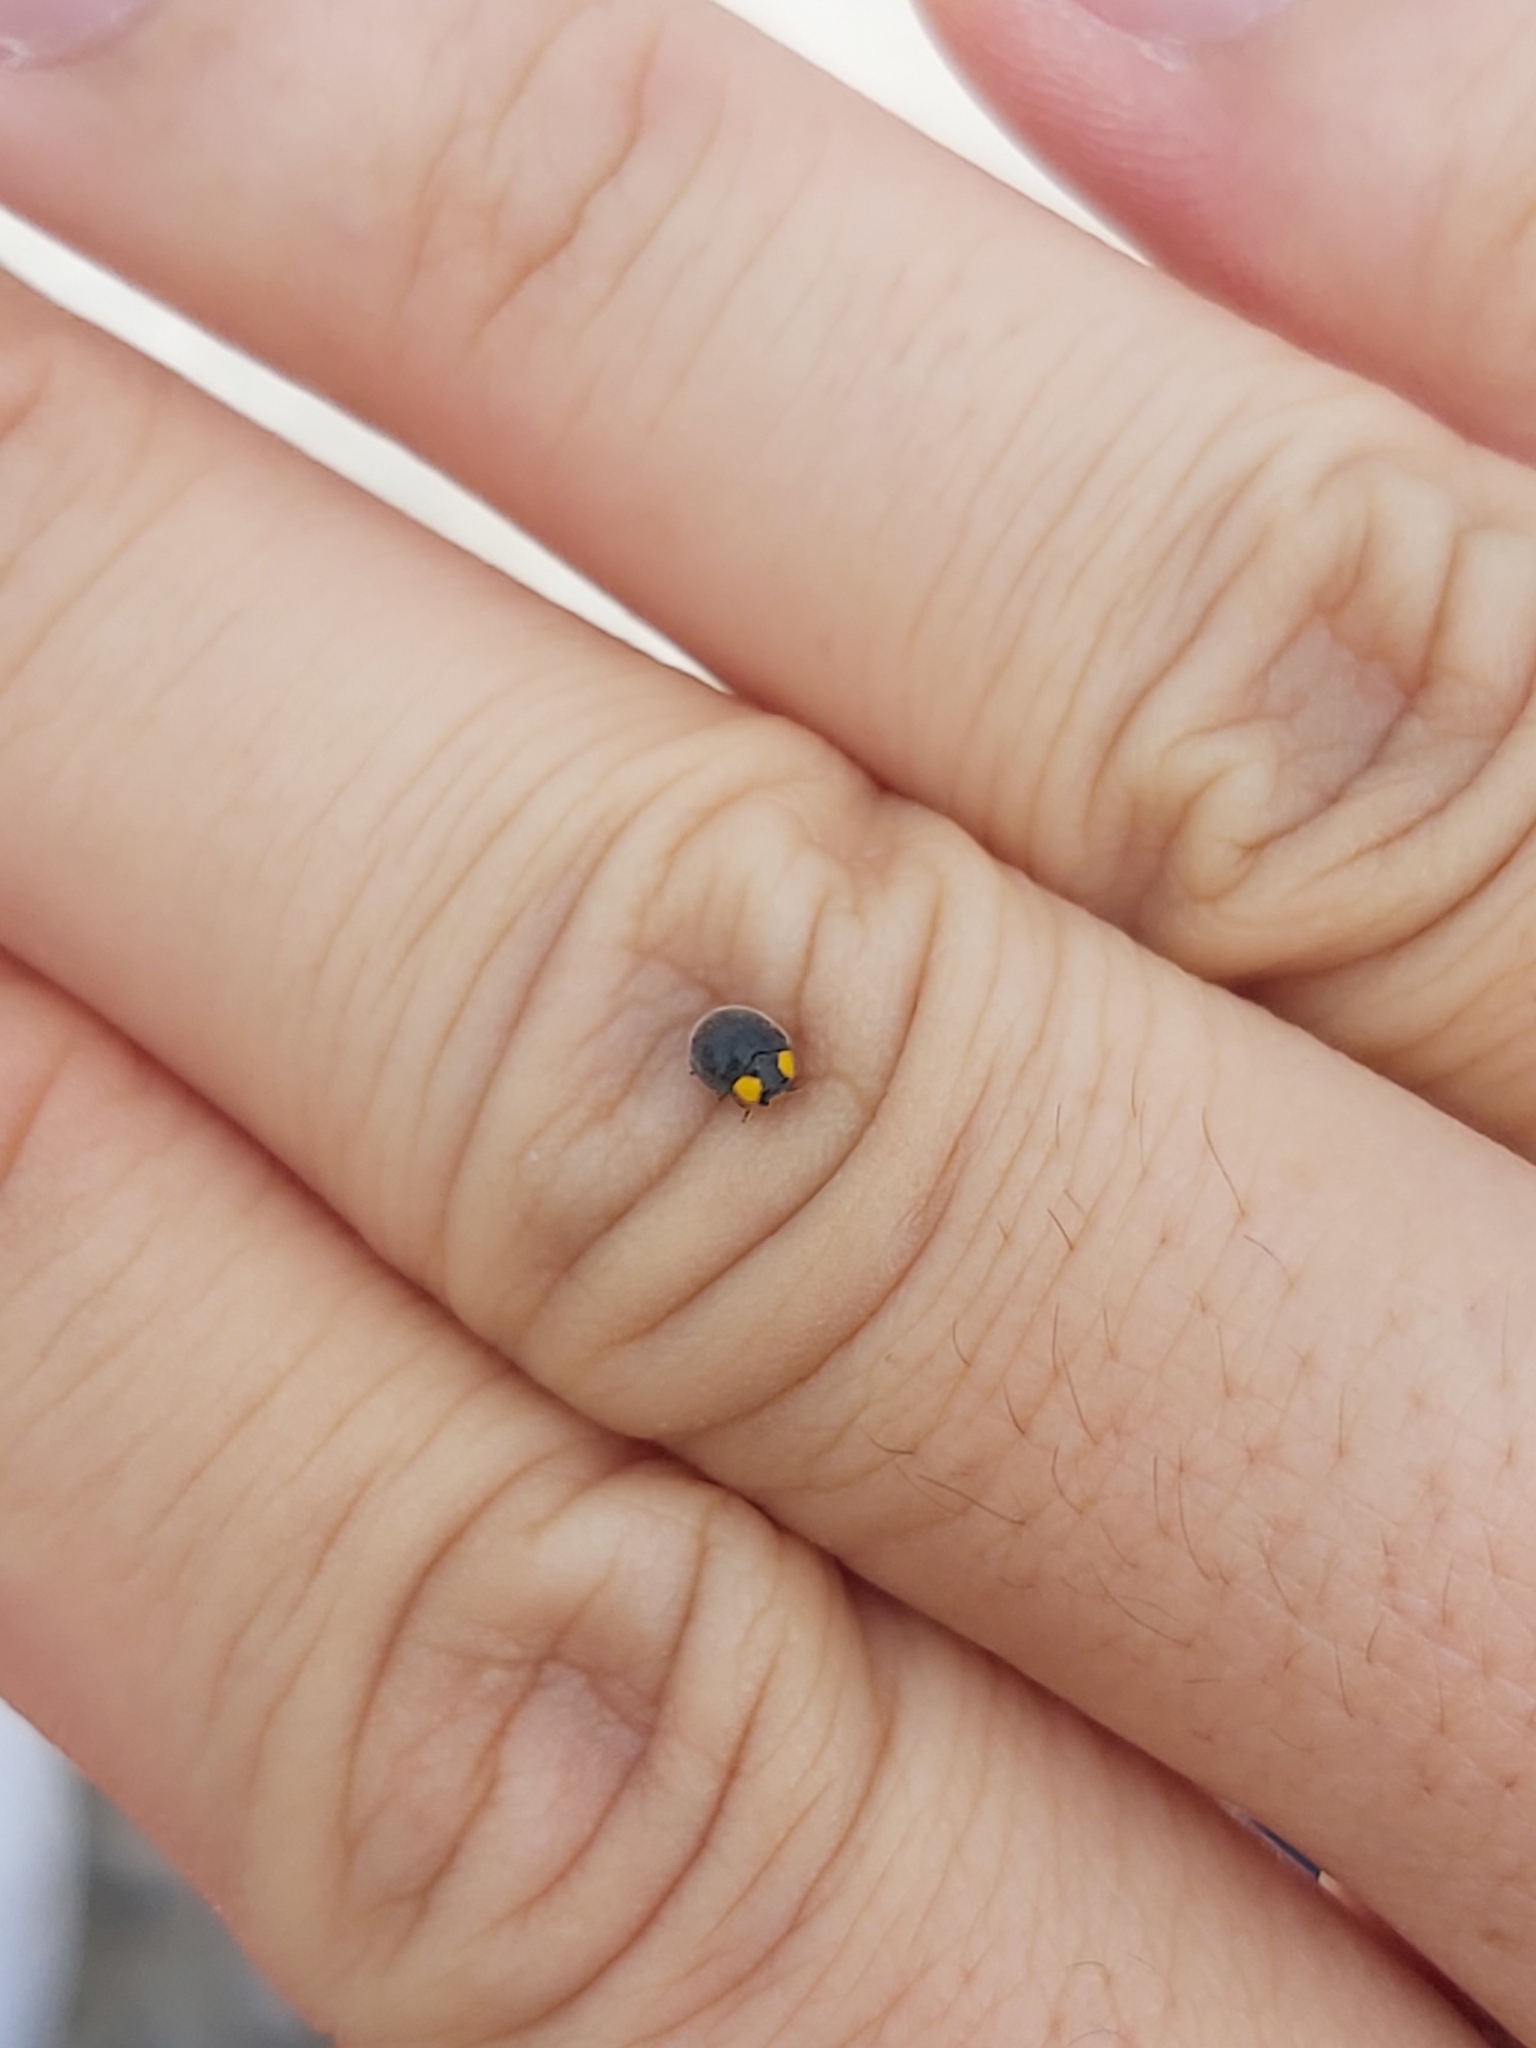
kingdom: Animalia
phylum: Arthropoda
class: Insecta
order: Coleoptera
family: Coccinellidae
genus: Scymnodes
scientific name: Scymnodes lividigaster
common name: Yellowshouldered lady beetle
